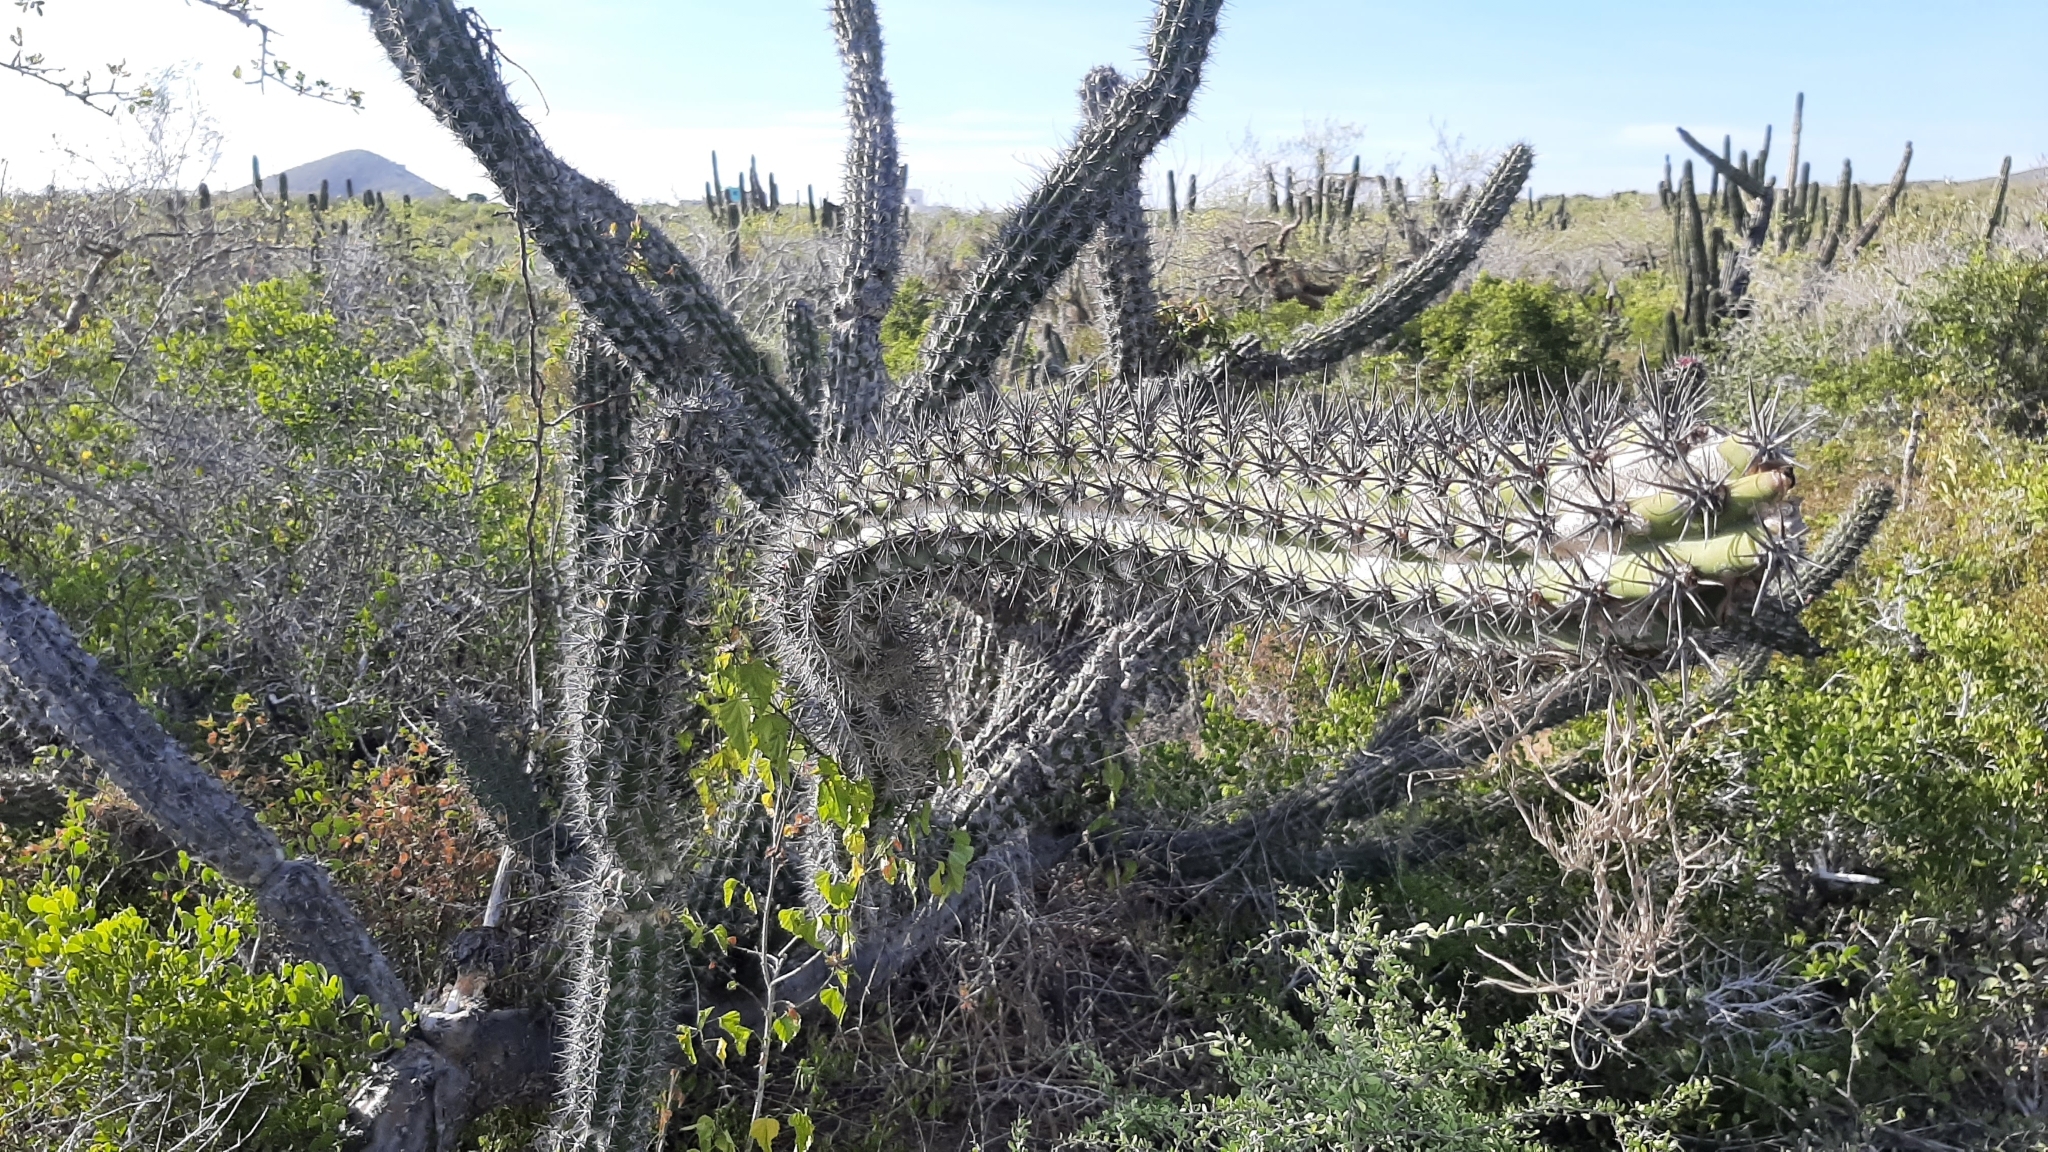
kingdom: Plantae
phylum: Tracheophyta
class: Magnoliopsida
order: Caryophyllales
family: Cactaceae
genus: Stenocereus
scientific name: Stenocereus gummosus
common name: Dagger cactus
